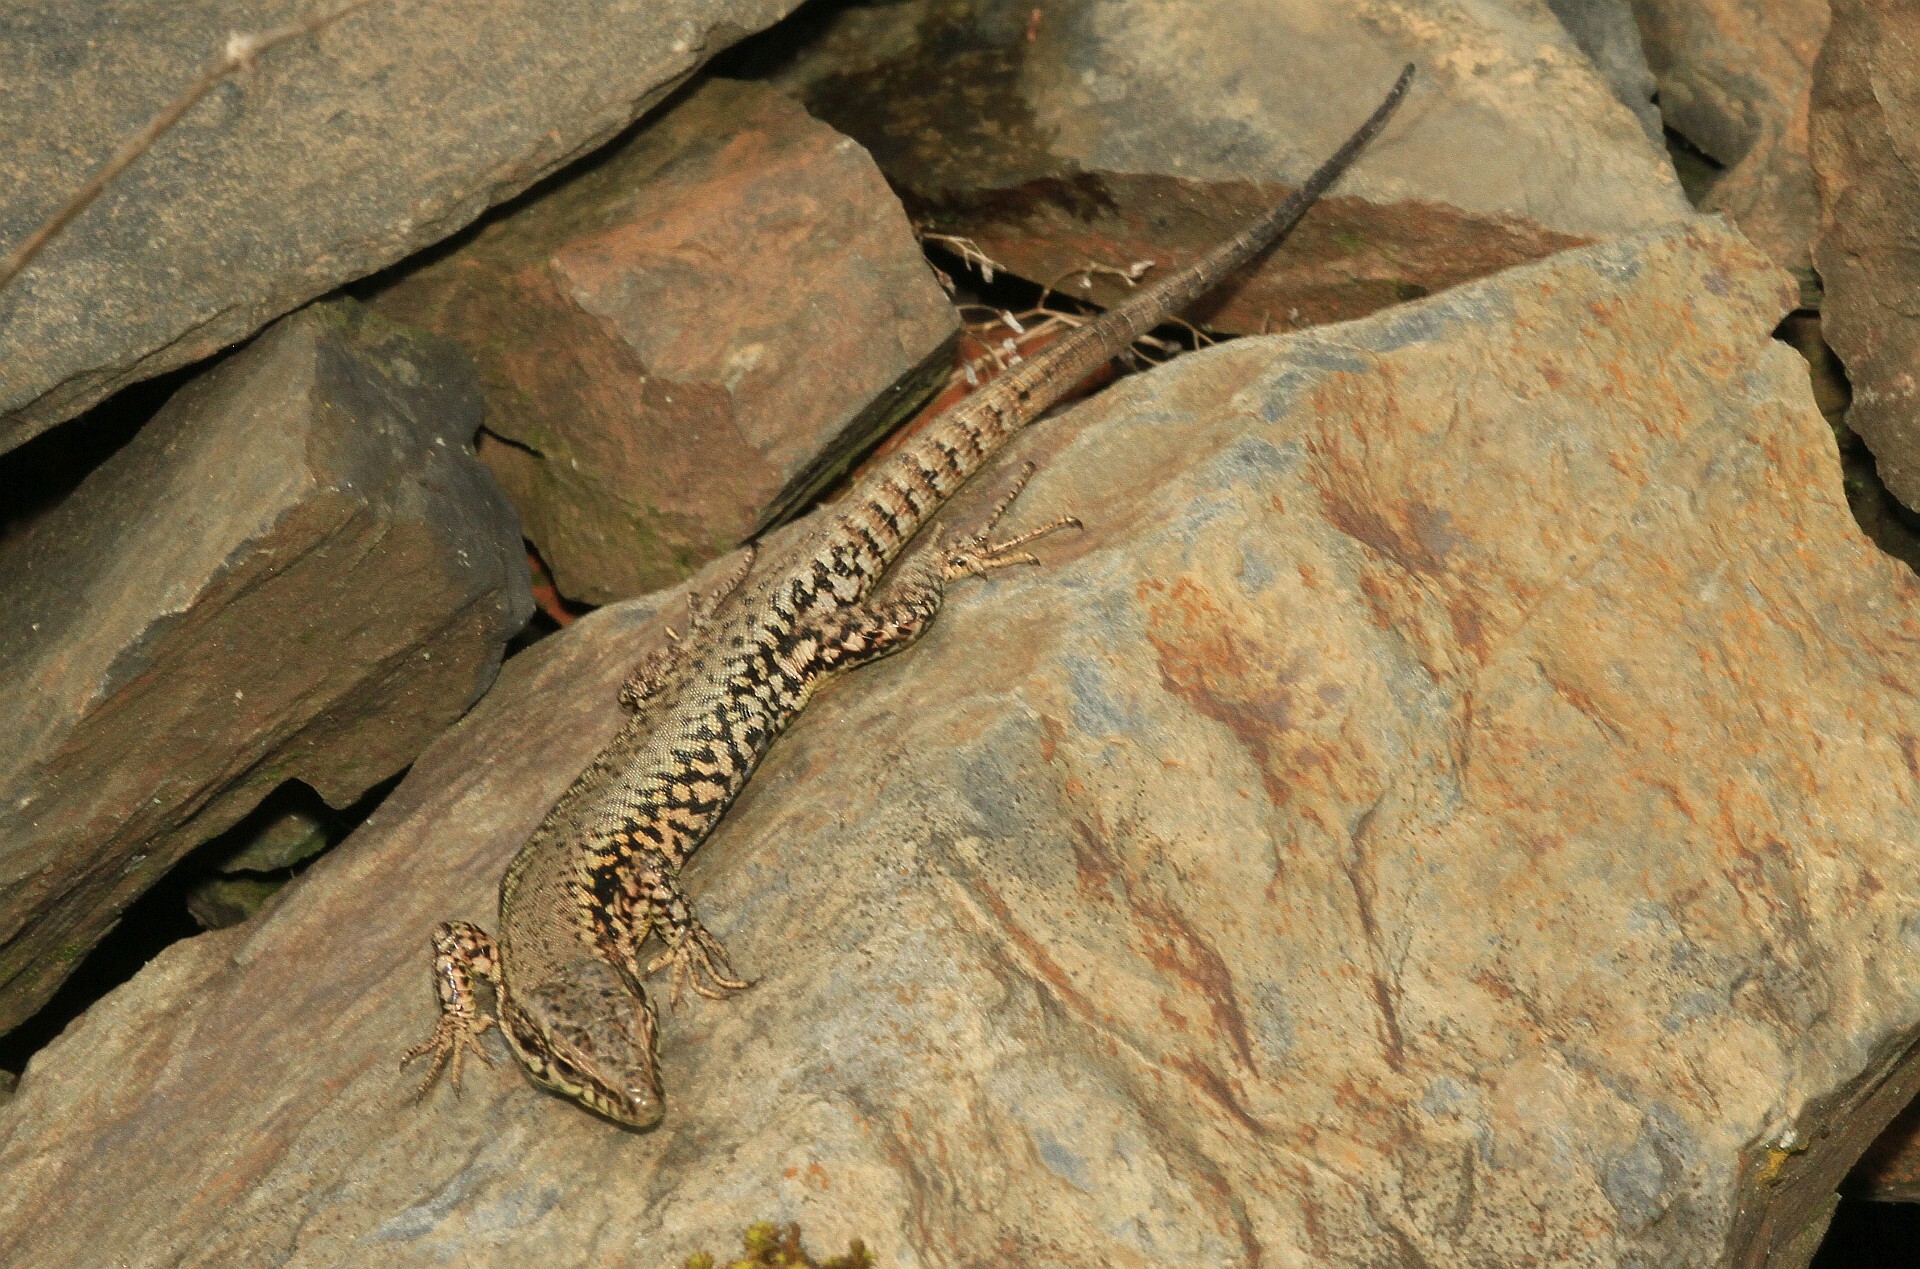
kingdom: Animalia
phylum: Chordata
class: Squamata
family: Lacertidae
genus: Podarcis
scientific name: Podarcis muralis
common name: Common wall lizard
